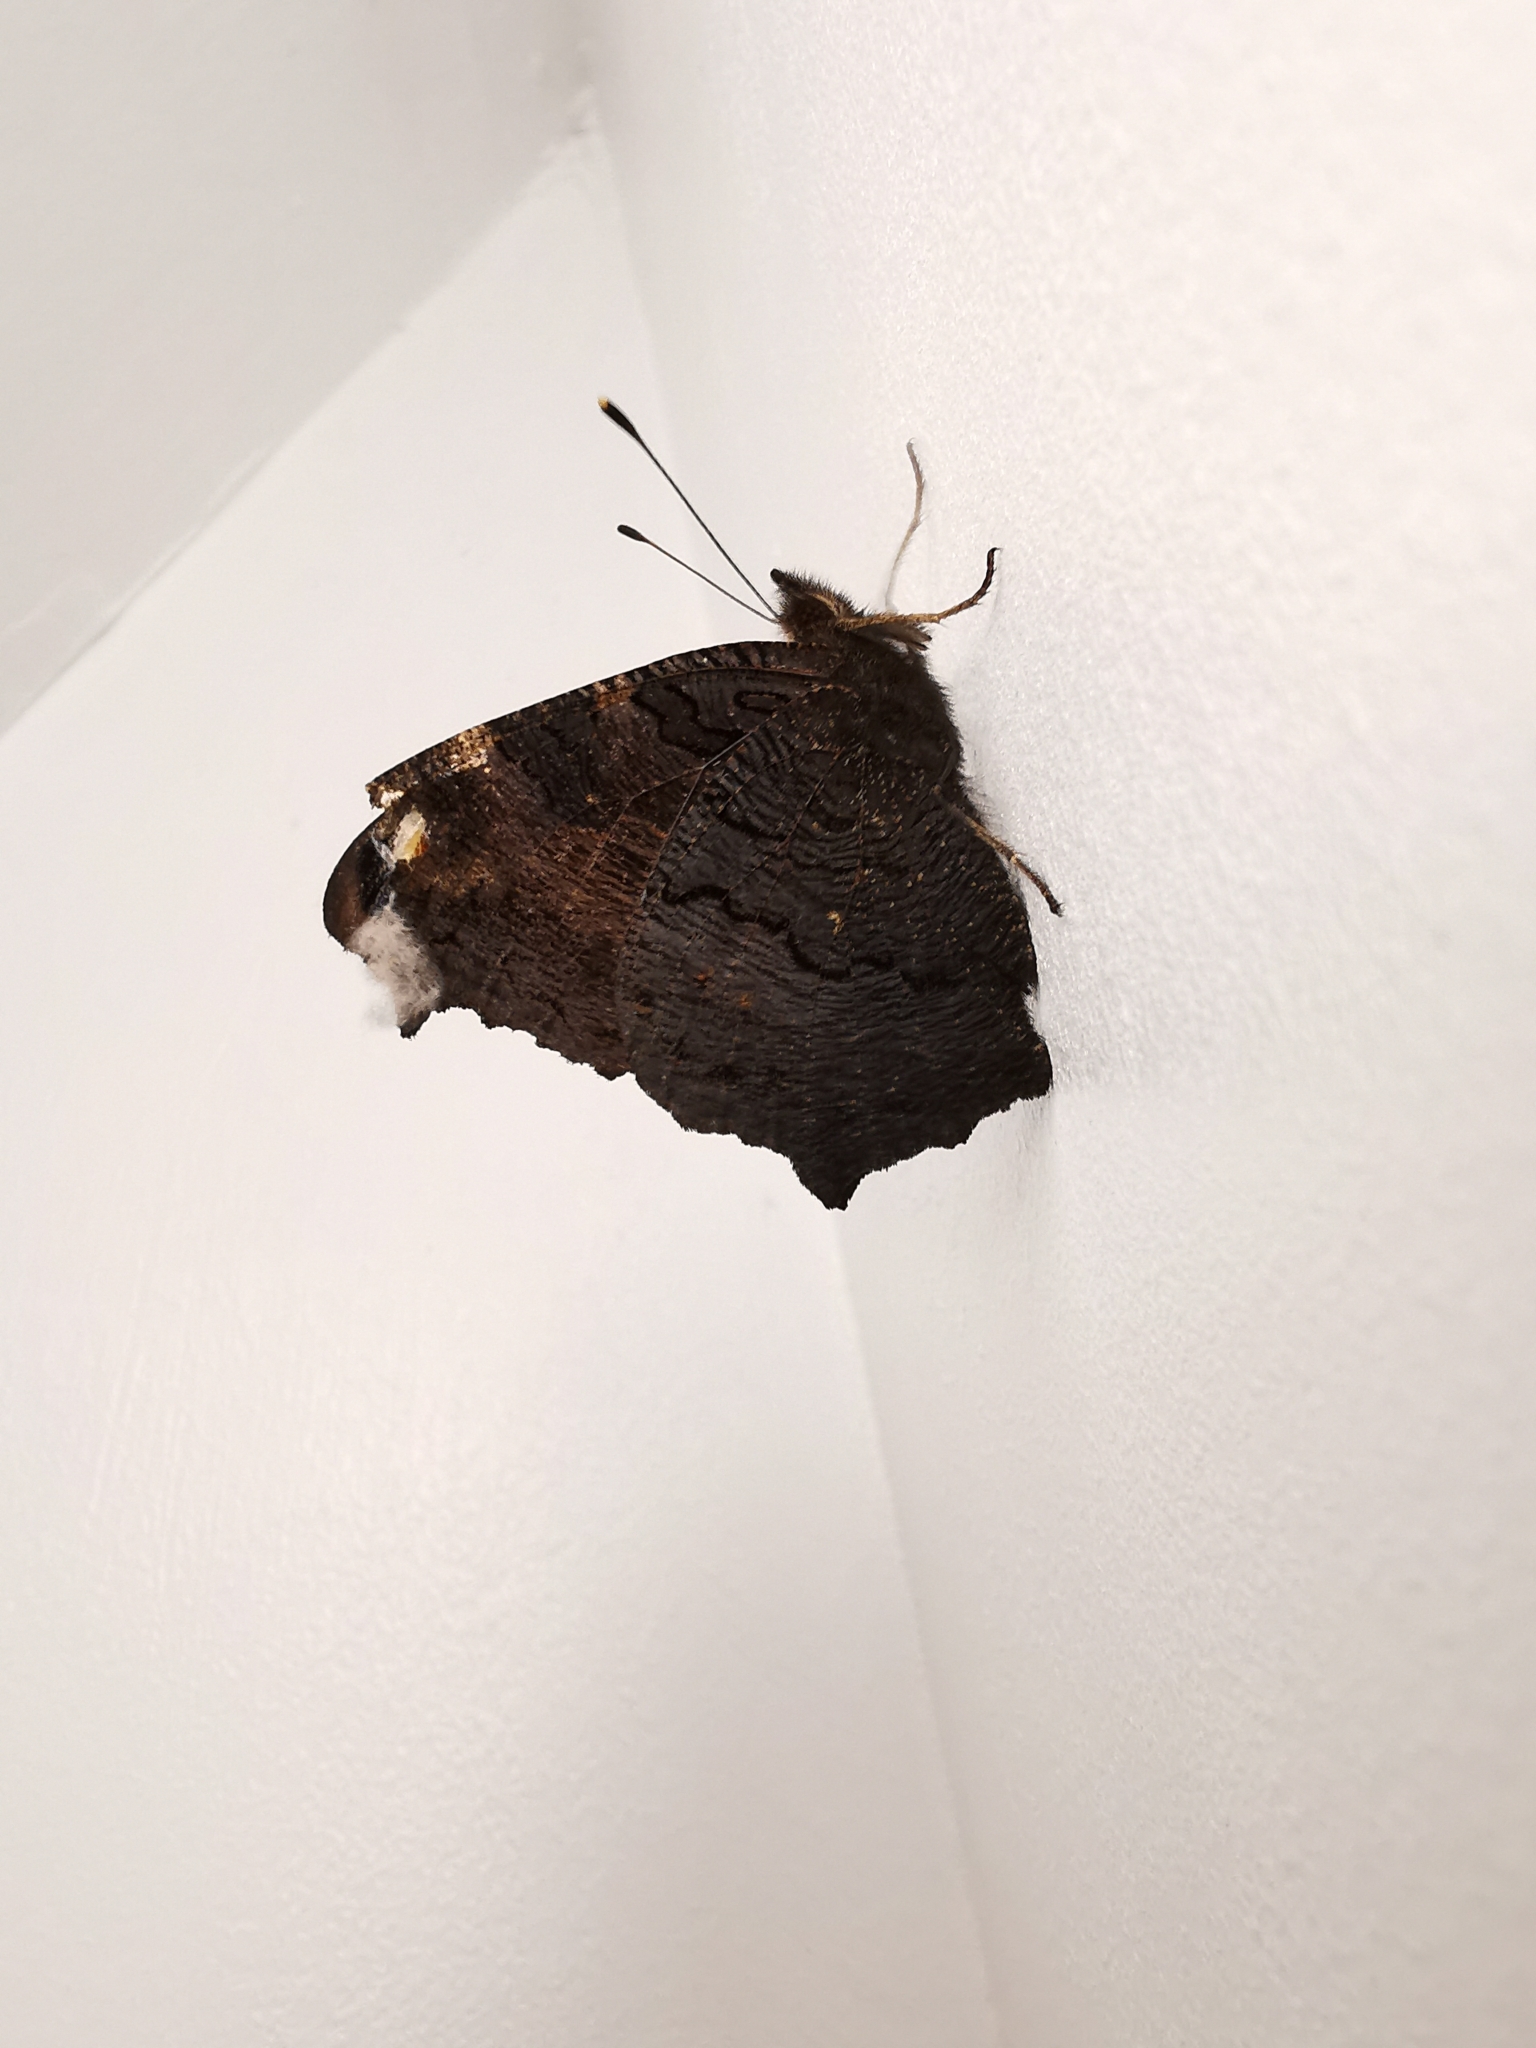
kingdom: Animalia
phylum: Arthropoda
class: Insecta
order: Lepidoptera
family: Nymphalidae
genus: Aglais
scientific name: Aglais io
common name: Peacock
